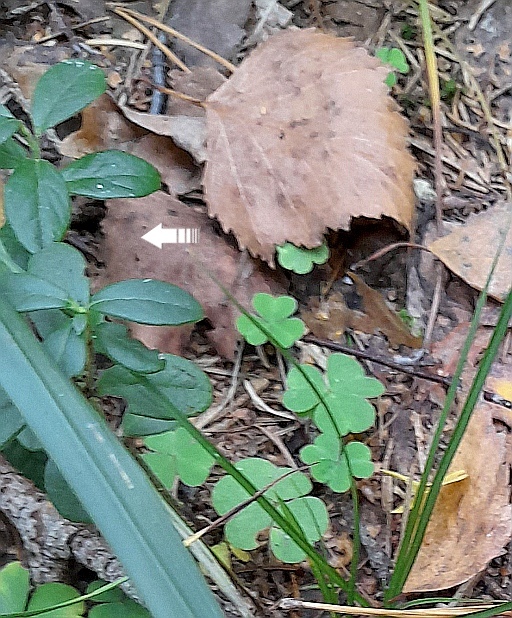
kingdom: Plantae
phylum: Tracheophyta
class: Magnoliopsida
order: Ericales
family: Ericaceae
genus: Vaccinium
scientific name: Vaccinium vitis-idaea
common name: Cowberry
